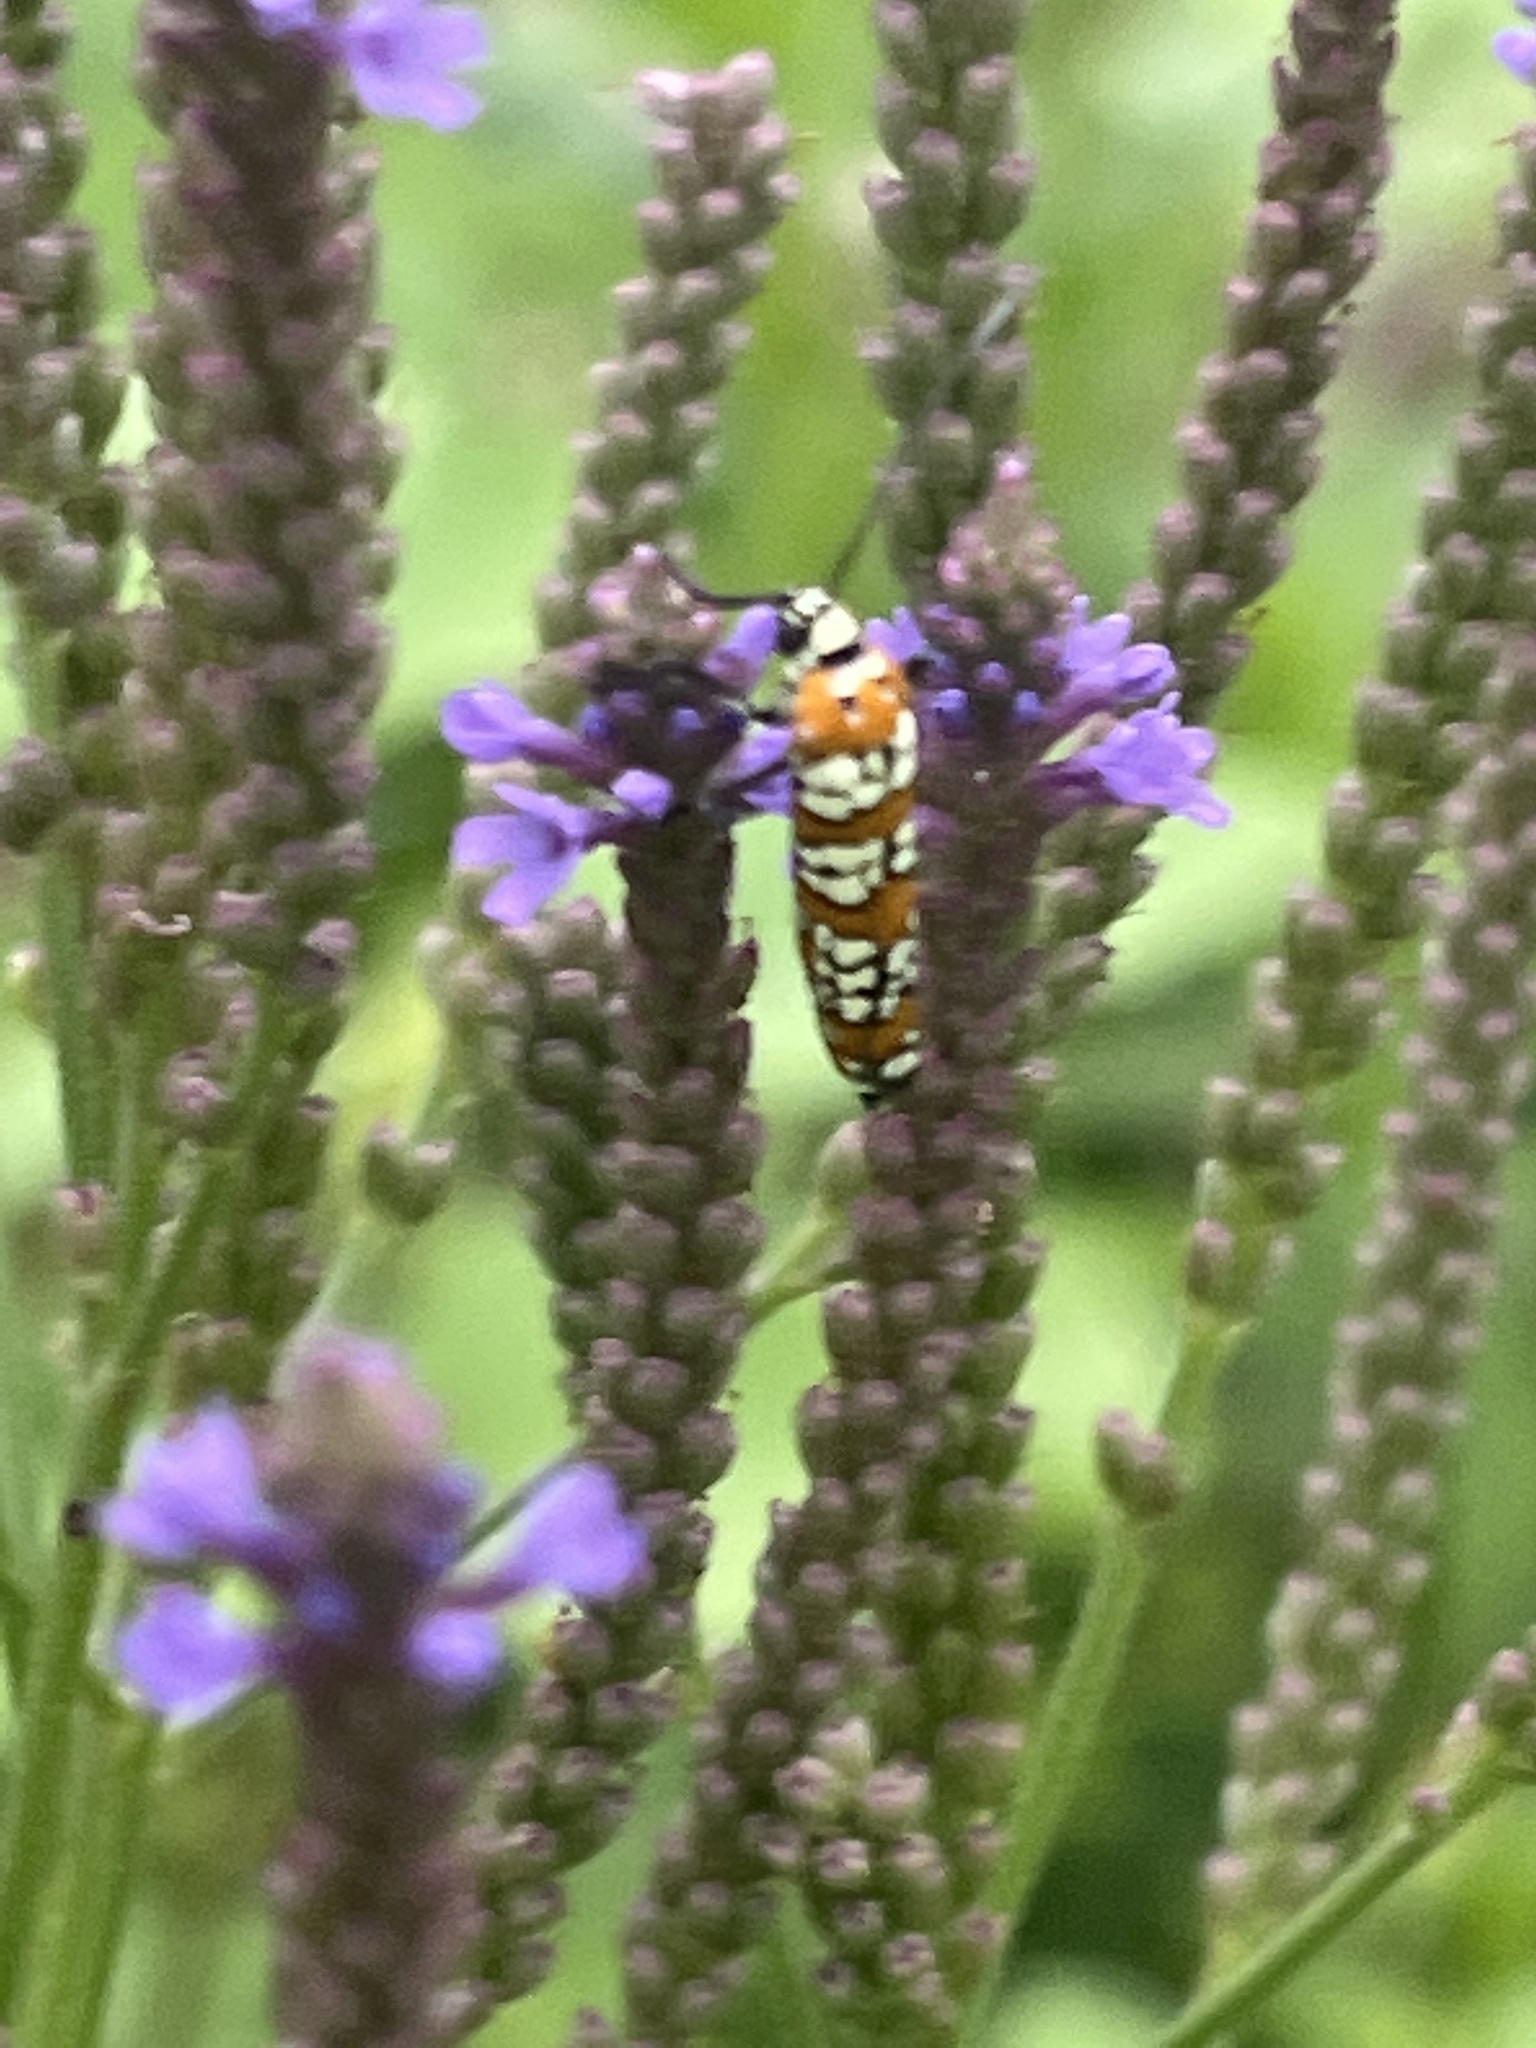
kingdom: Animalia
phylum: Arthropoda
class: Insecta
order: Lepidoptera
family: Attevidae
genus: Atteva
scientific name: Atteva punctella
